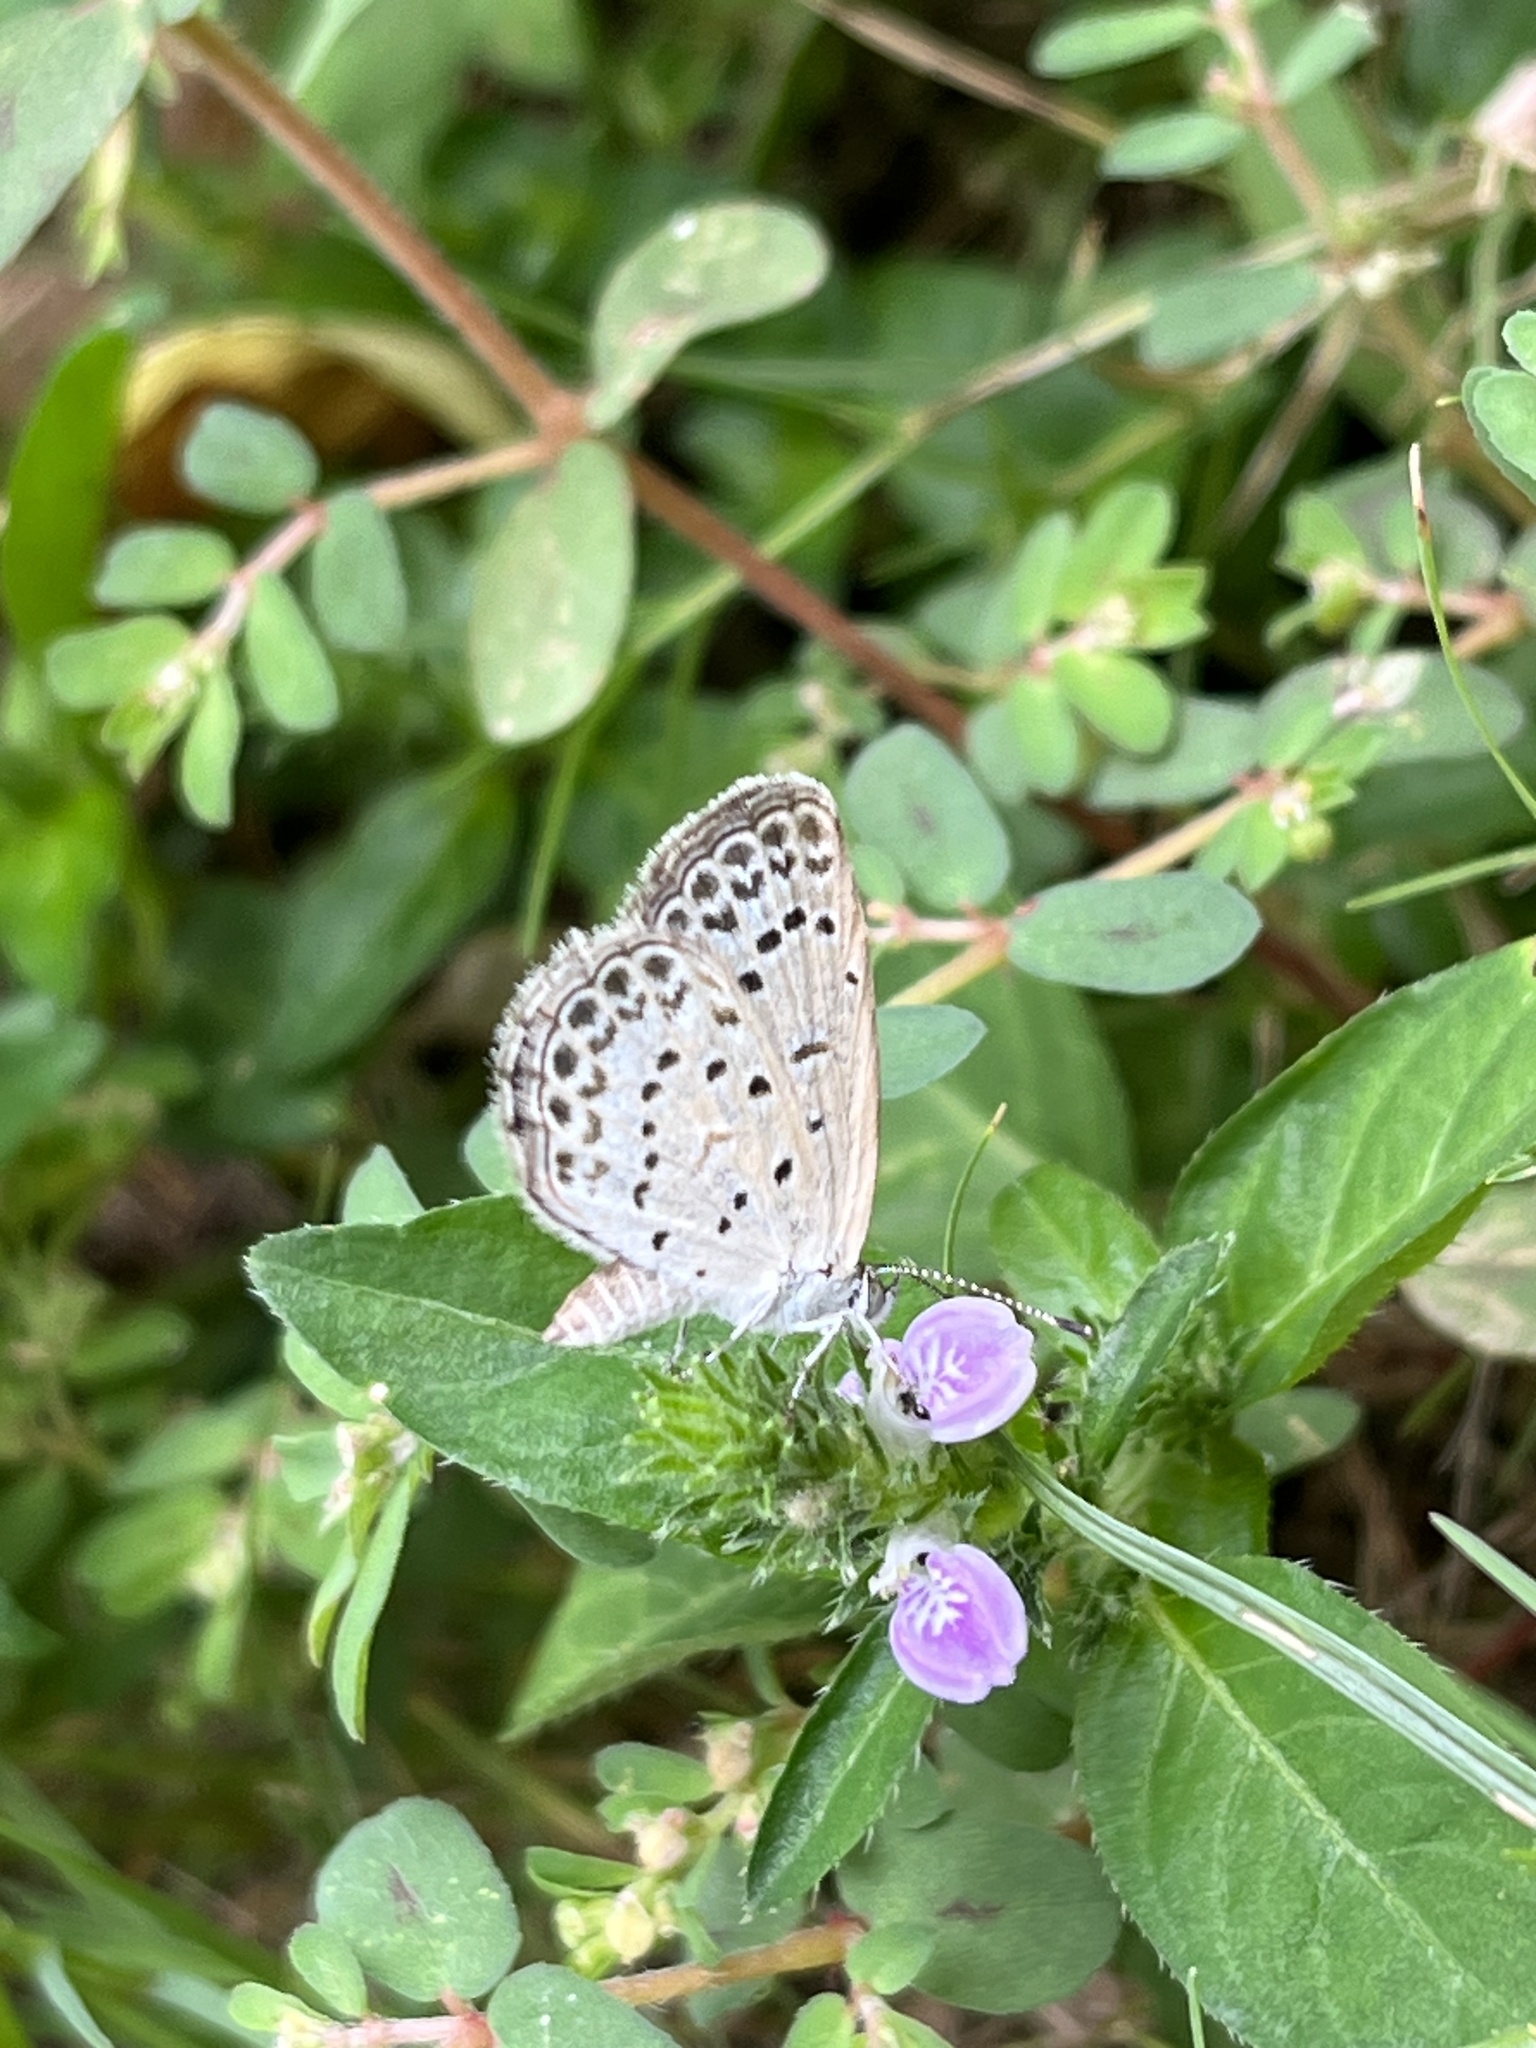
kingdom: Animalia
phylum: Arthropoda
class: Insecta
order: Lepidoptera
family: Lycaenidae
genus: Pseudozizeeria
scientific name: Pseudozizeeria maha
